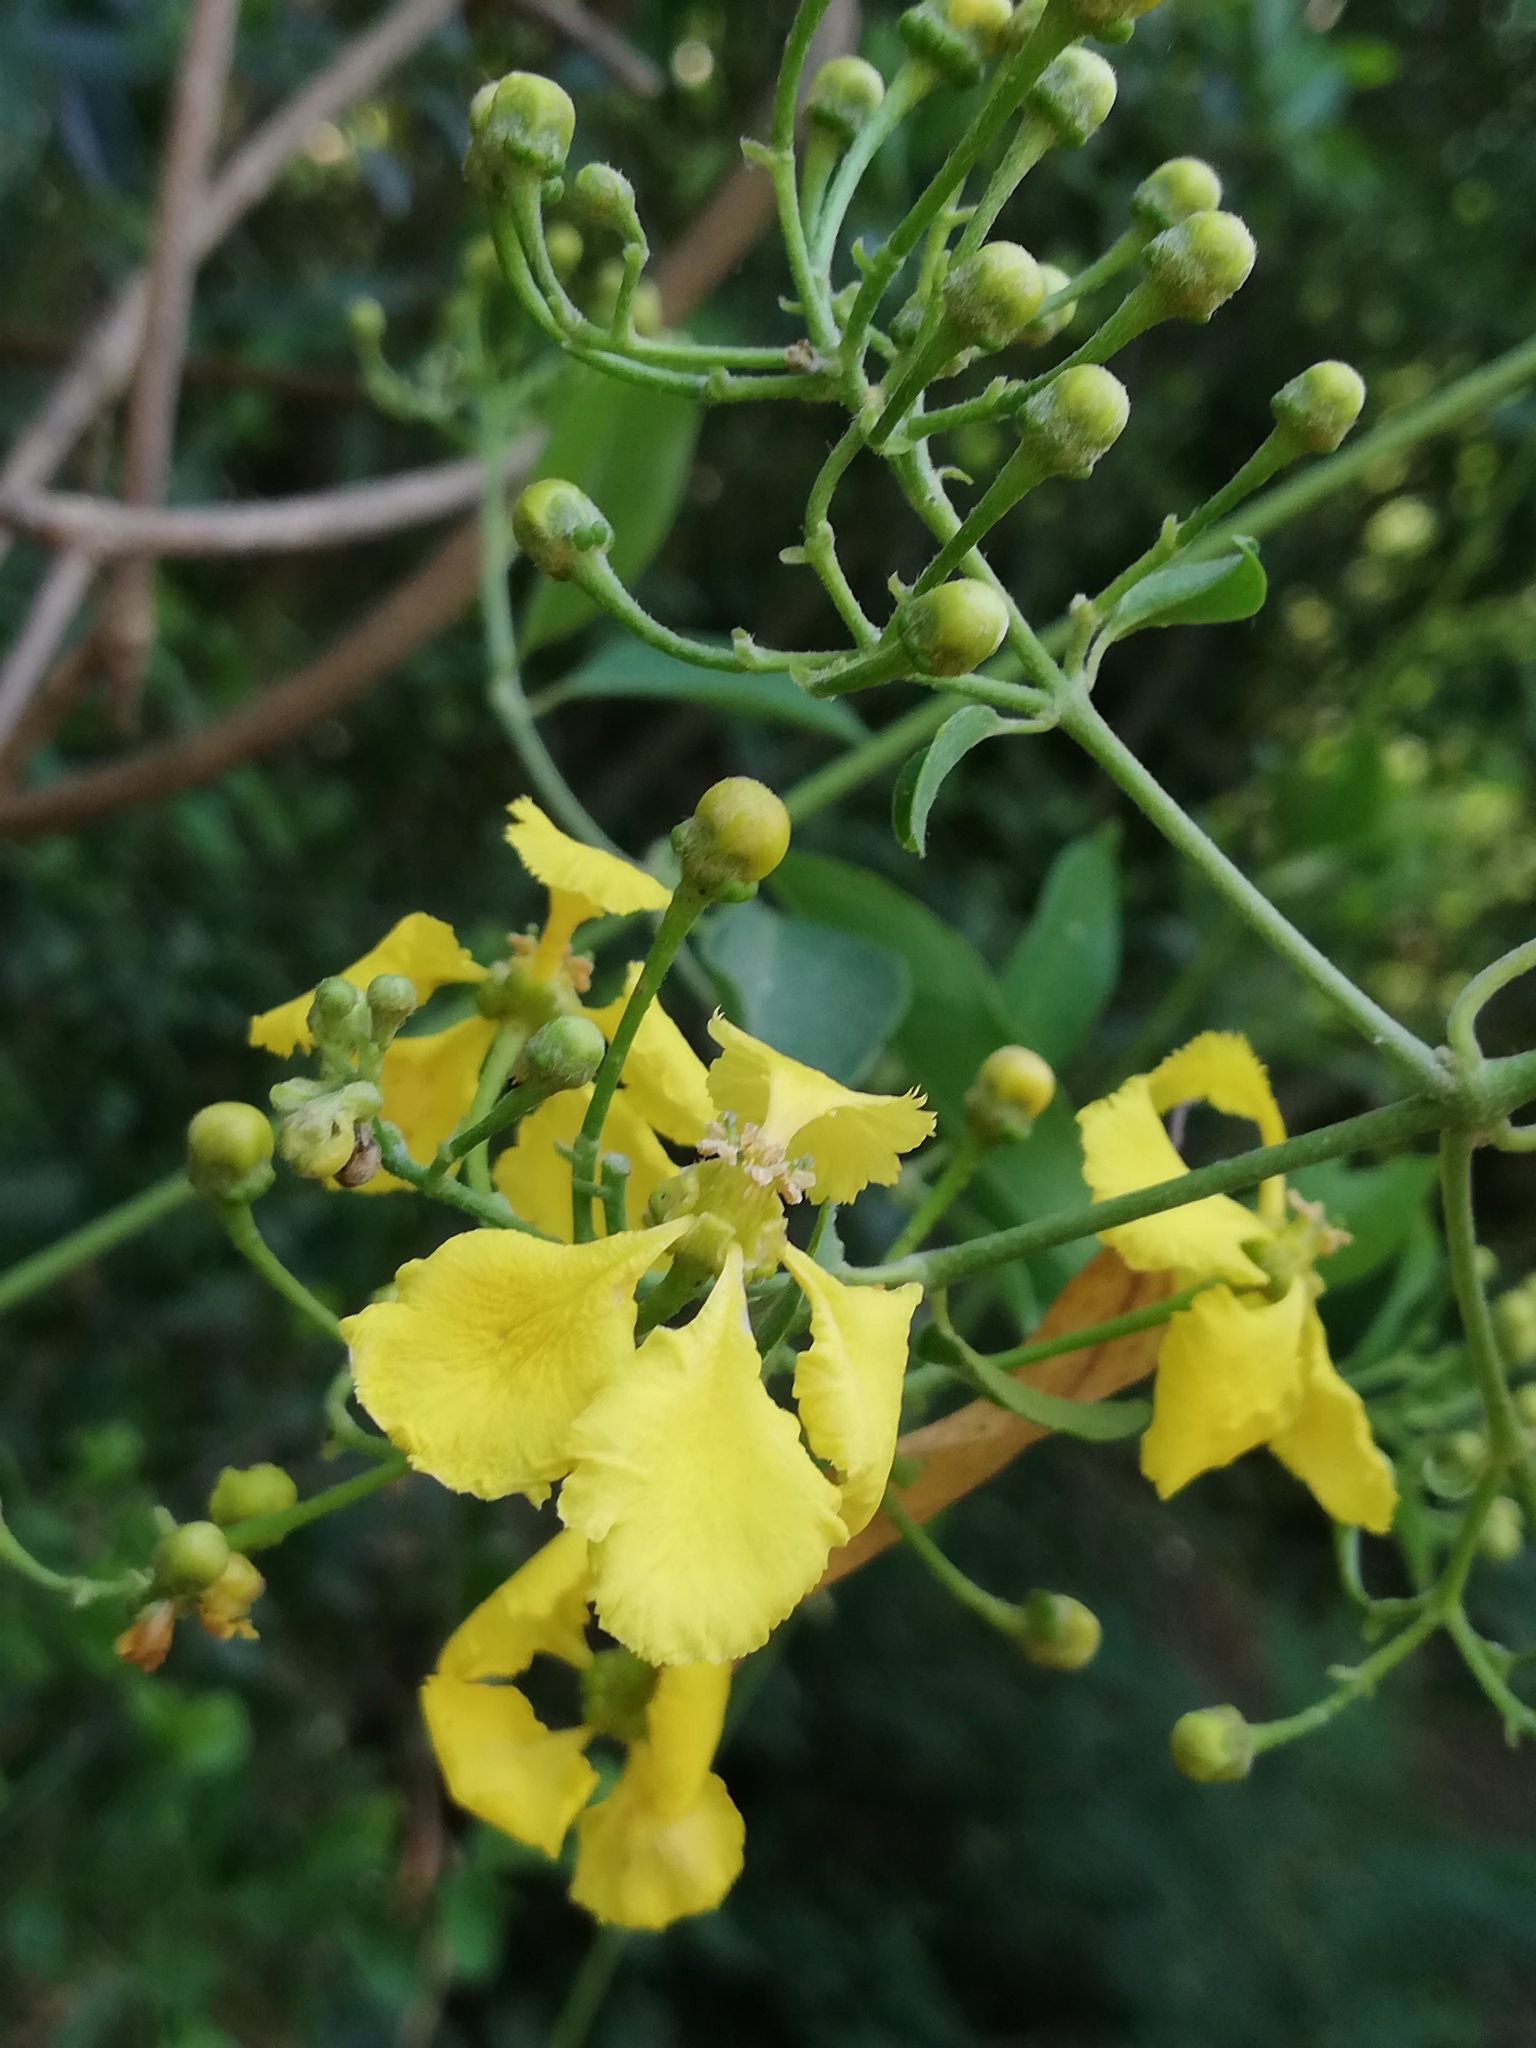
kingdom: Plantae
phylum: Tracheophyta
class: Magnoliopsida
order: Malpighiales
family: Malpighiaceae
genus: Callaeum
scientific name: Callaeum macropterum
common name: Mexican butterfly-vine
